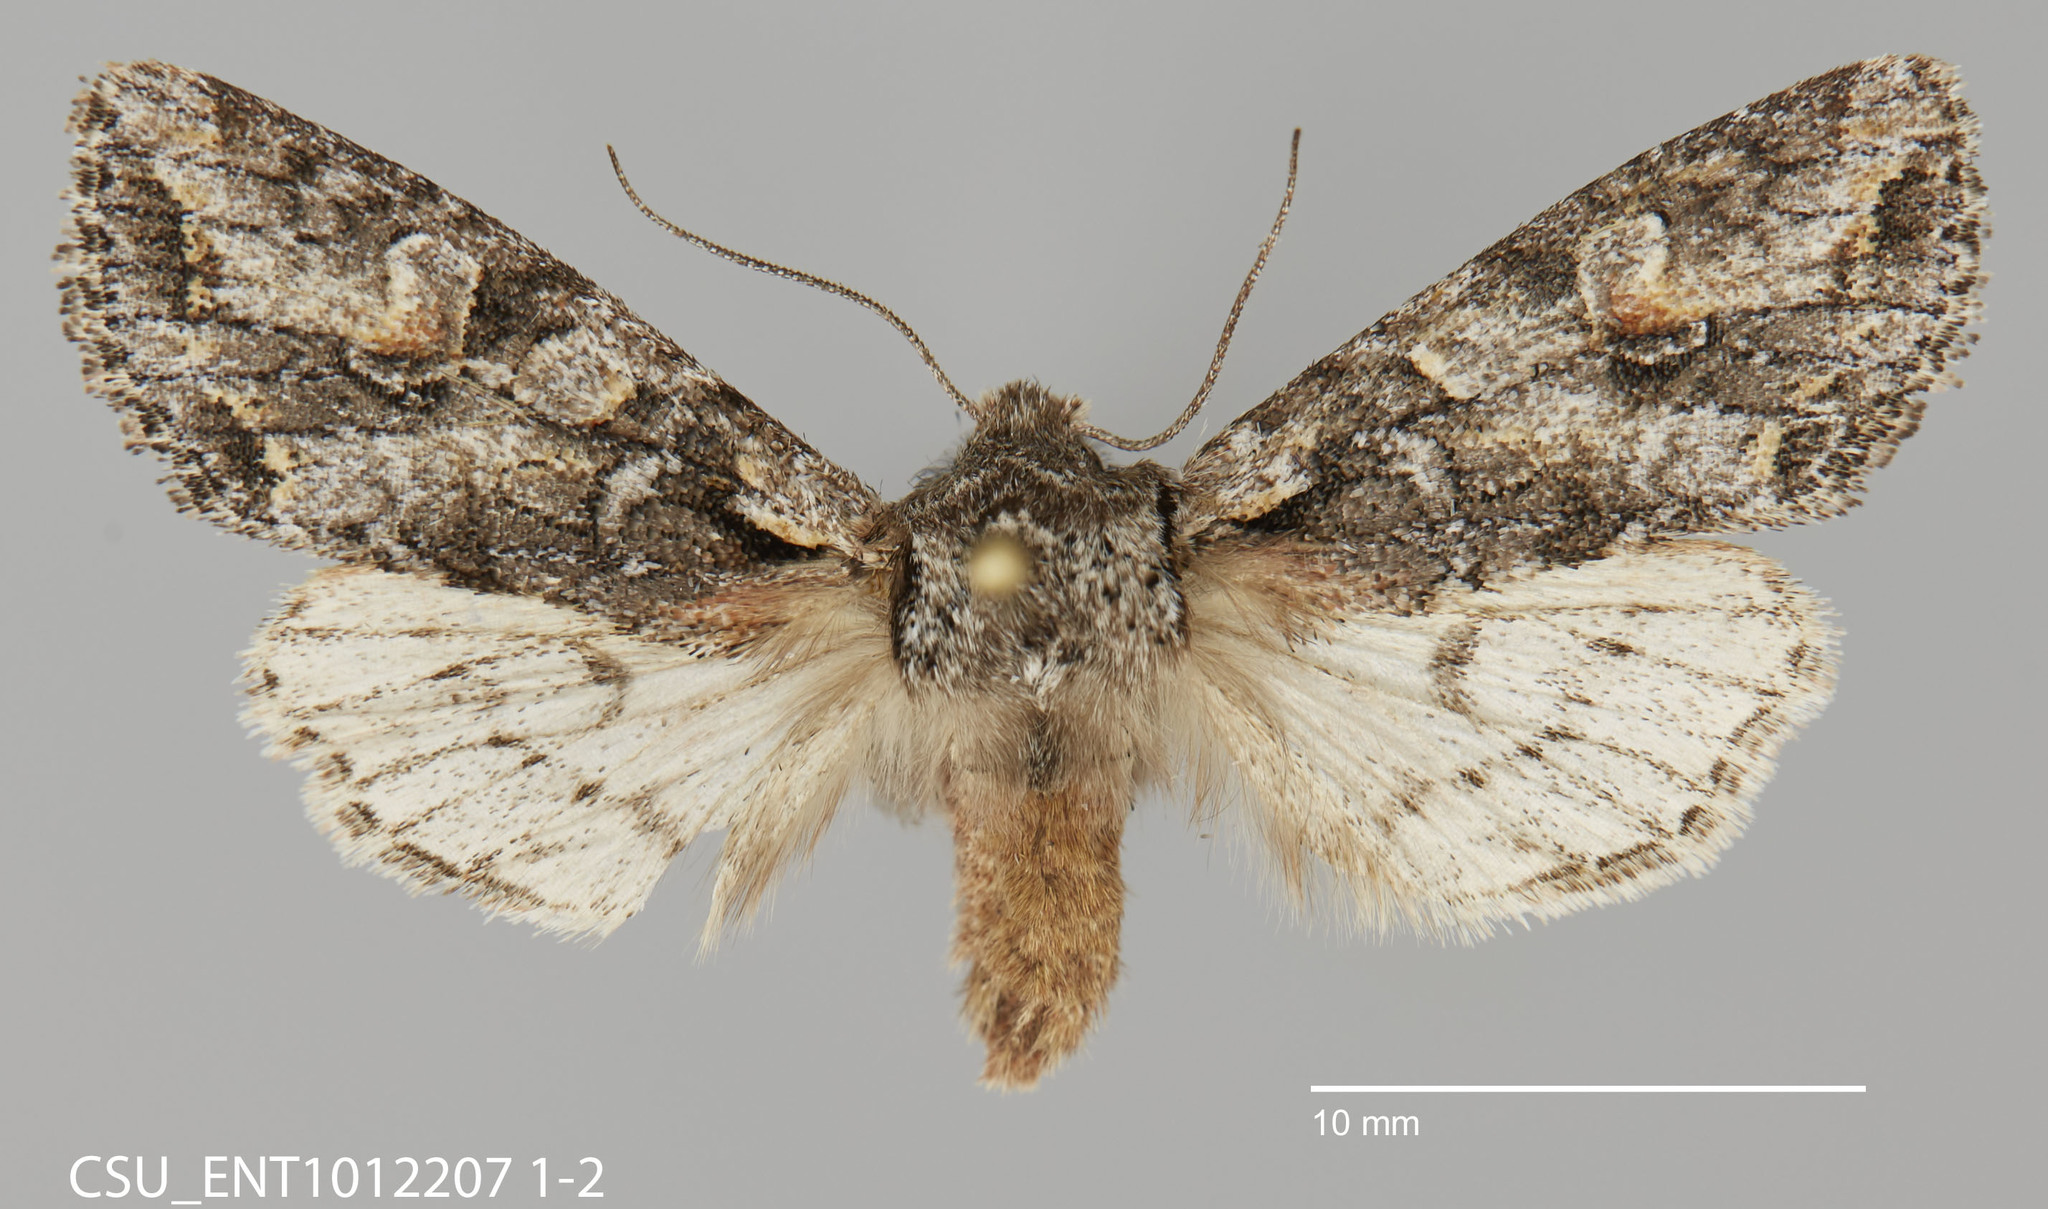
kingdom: Animalia
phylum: Arthropoda
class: Insecta
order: Lepidoptera
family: Noctuidae
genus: Egira
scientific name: Egira hiemalis
